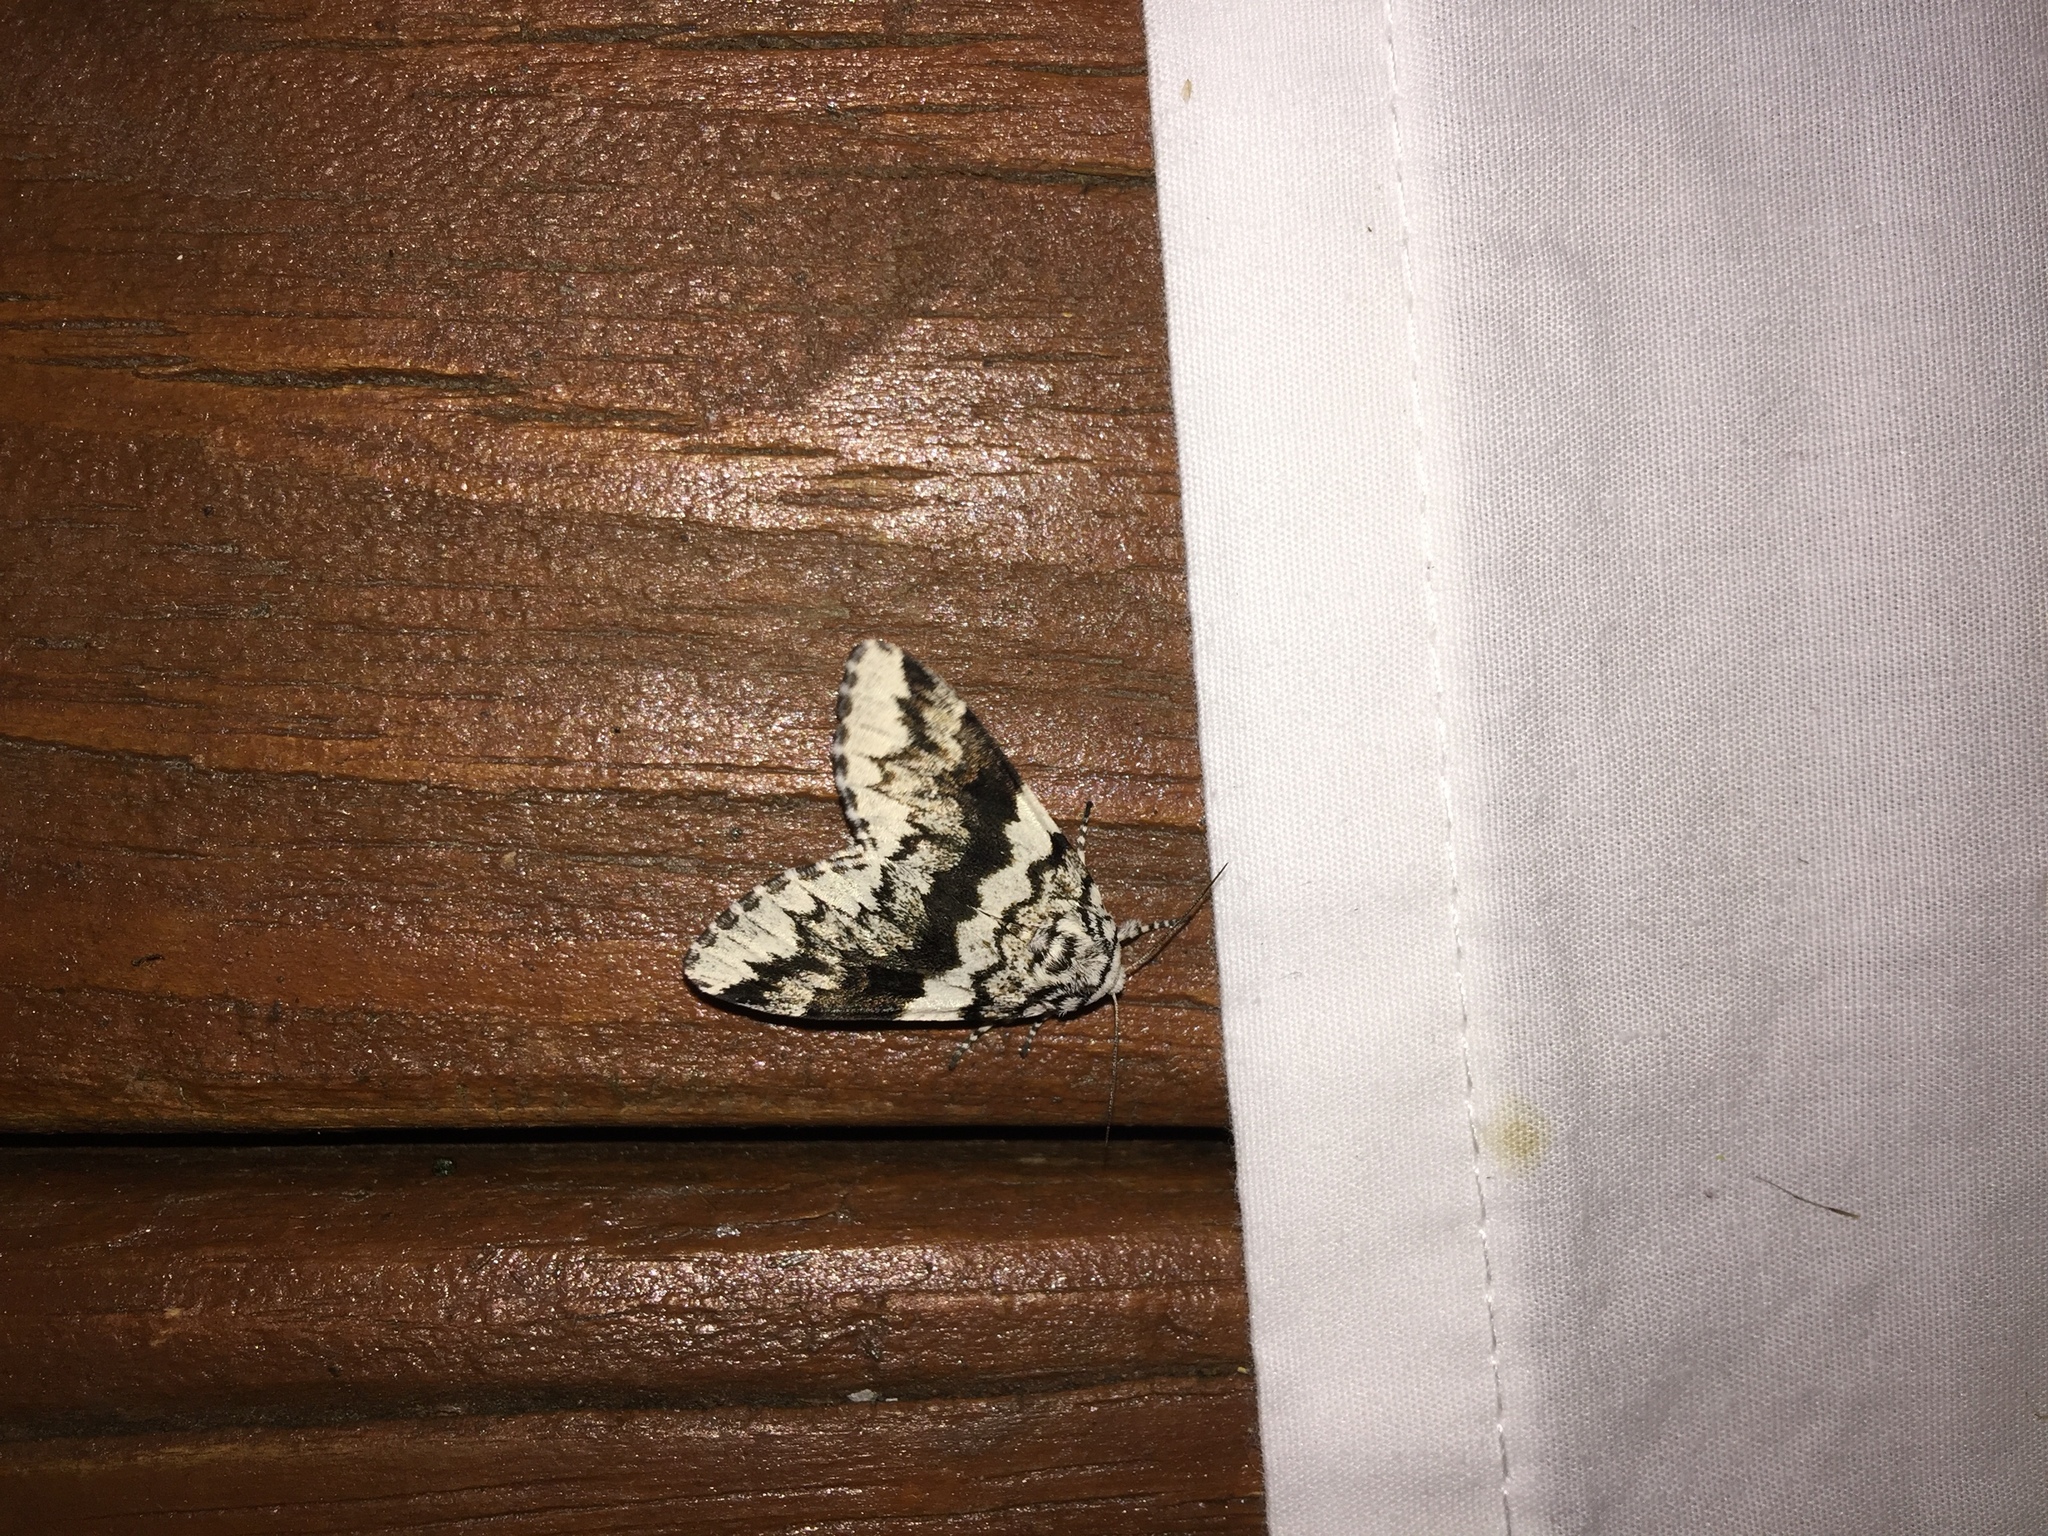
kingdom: Animalia
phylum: Arthropoda
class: Insecta
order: Lepidoptera
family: Noctuidae
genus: Panthea
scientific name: Panthea acronyctoides
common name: Black zigzag moth
